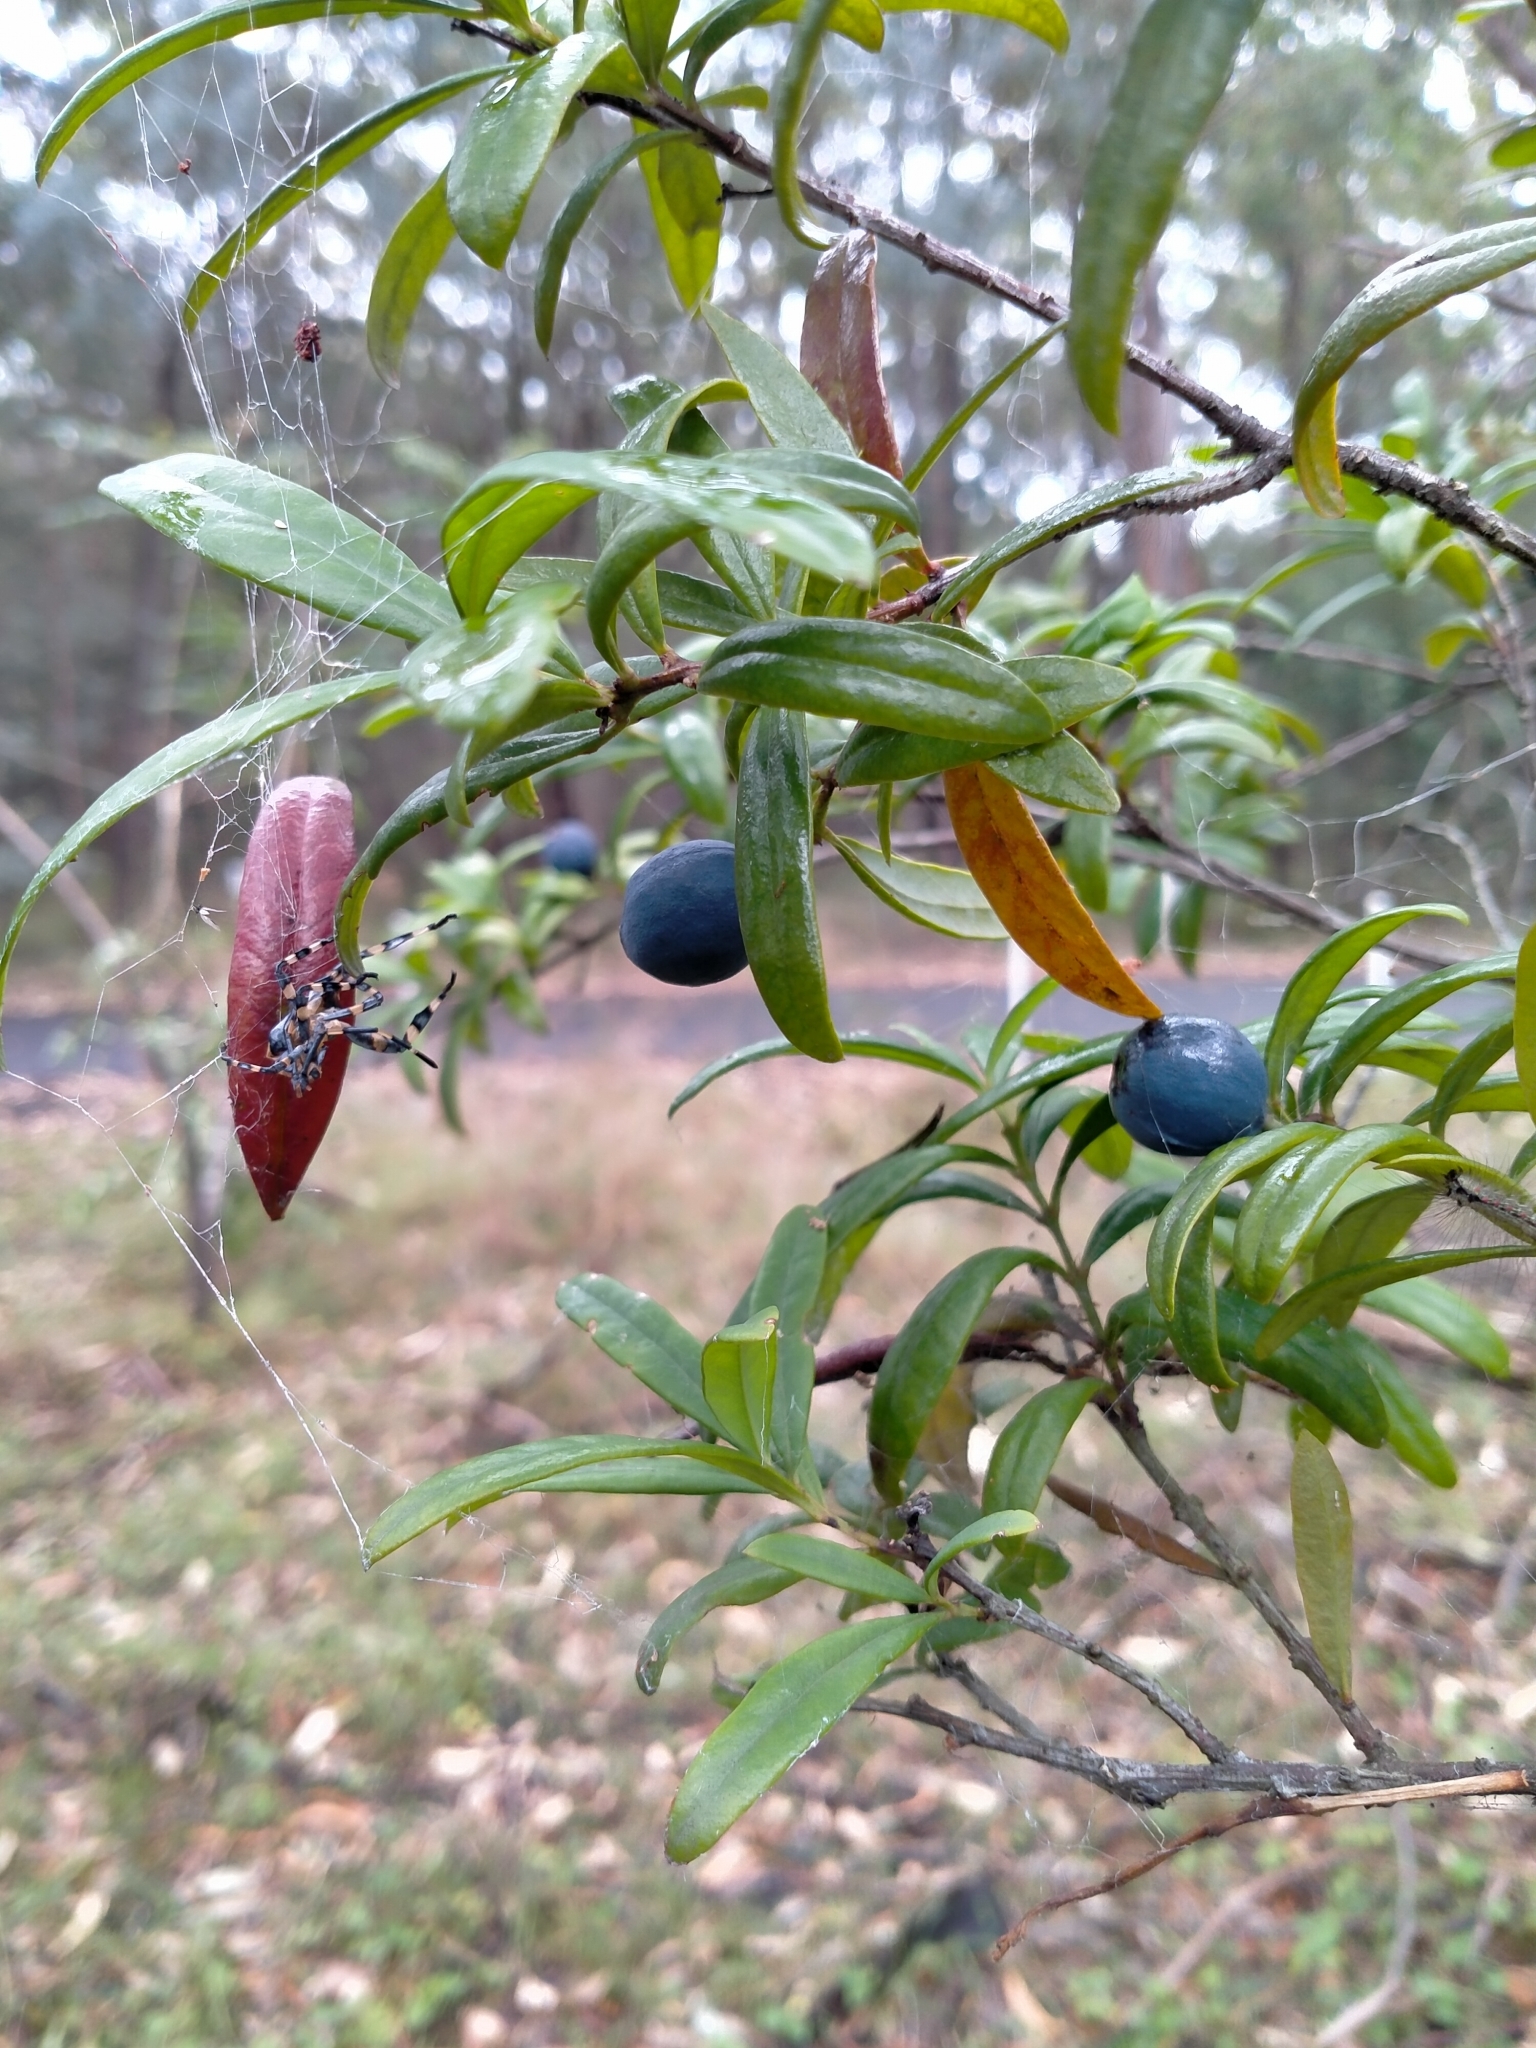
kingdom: Animalia
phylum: Arthropoda
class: Insecta
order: Hemiptera
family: Coreidae
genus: Amorbus
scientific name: Amorbus atomarius
